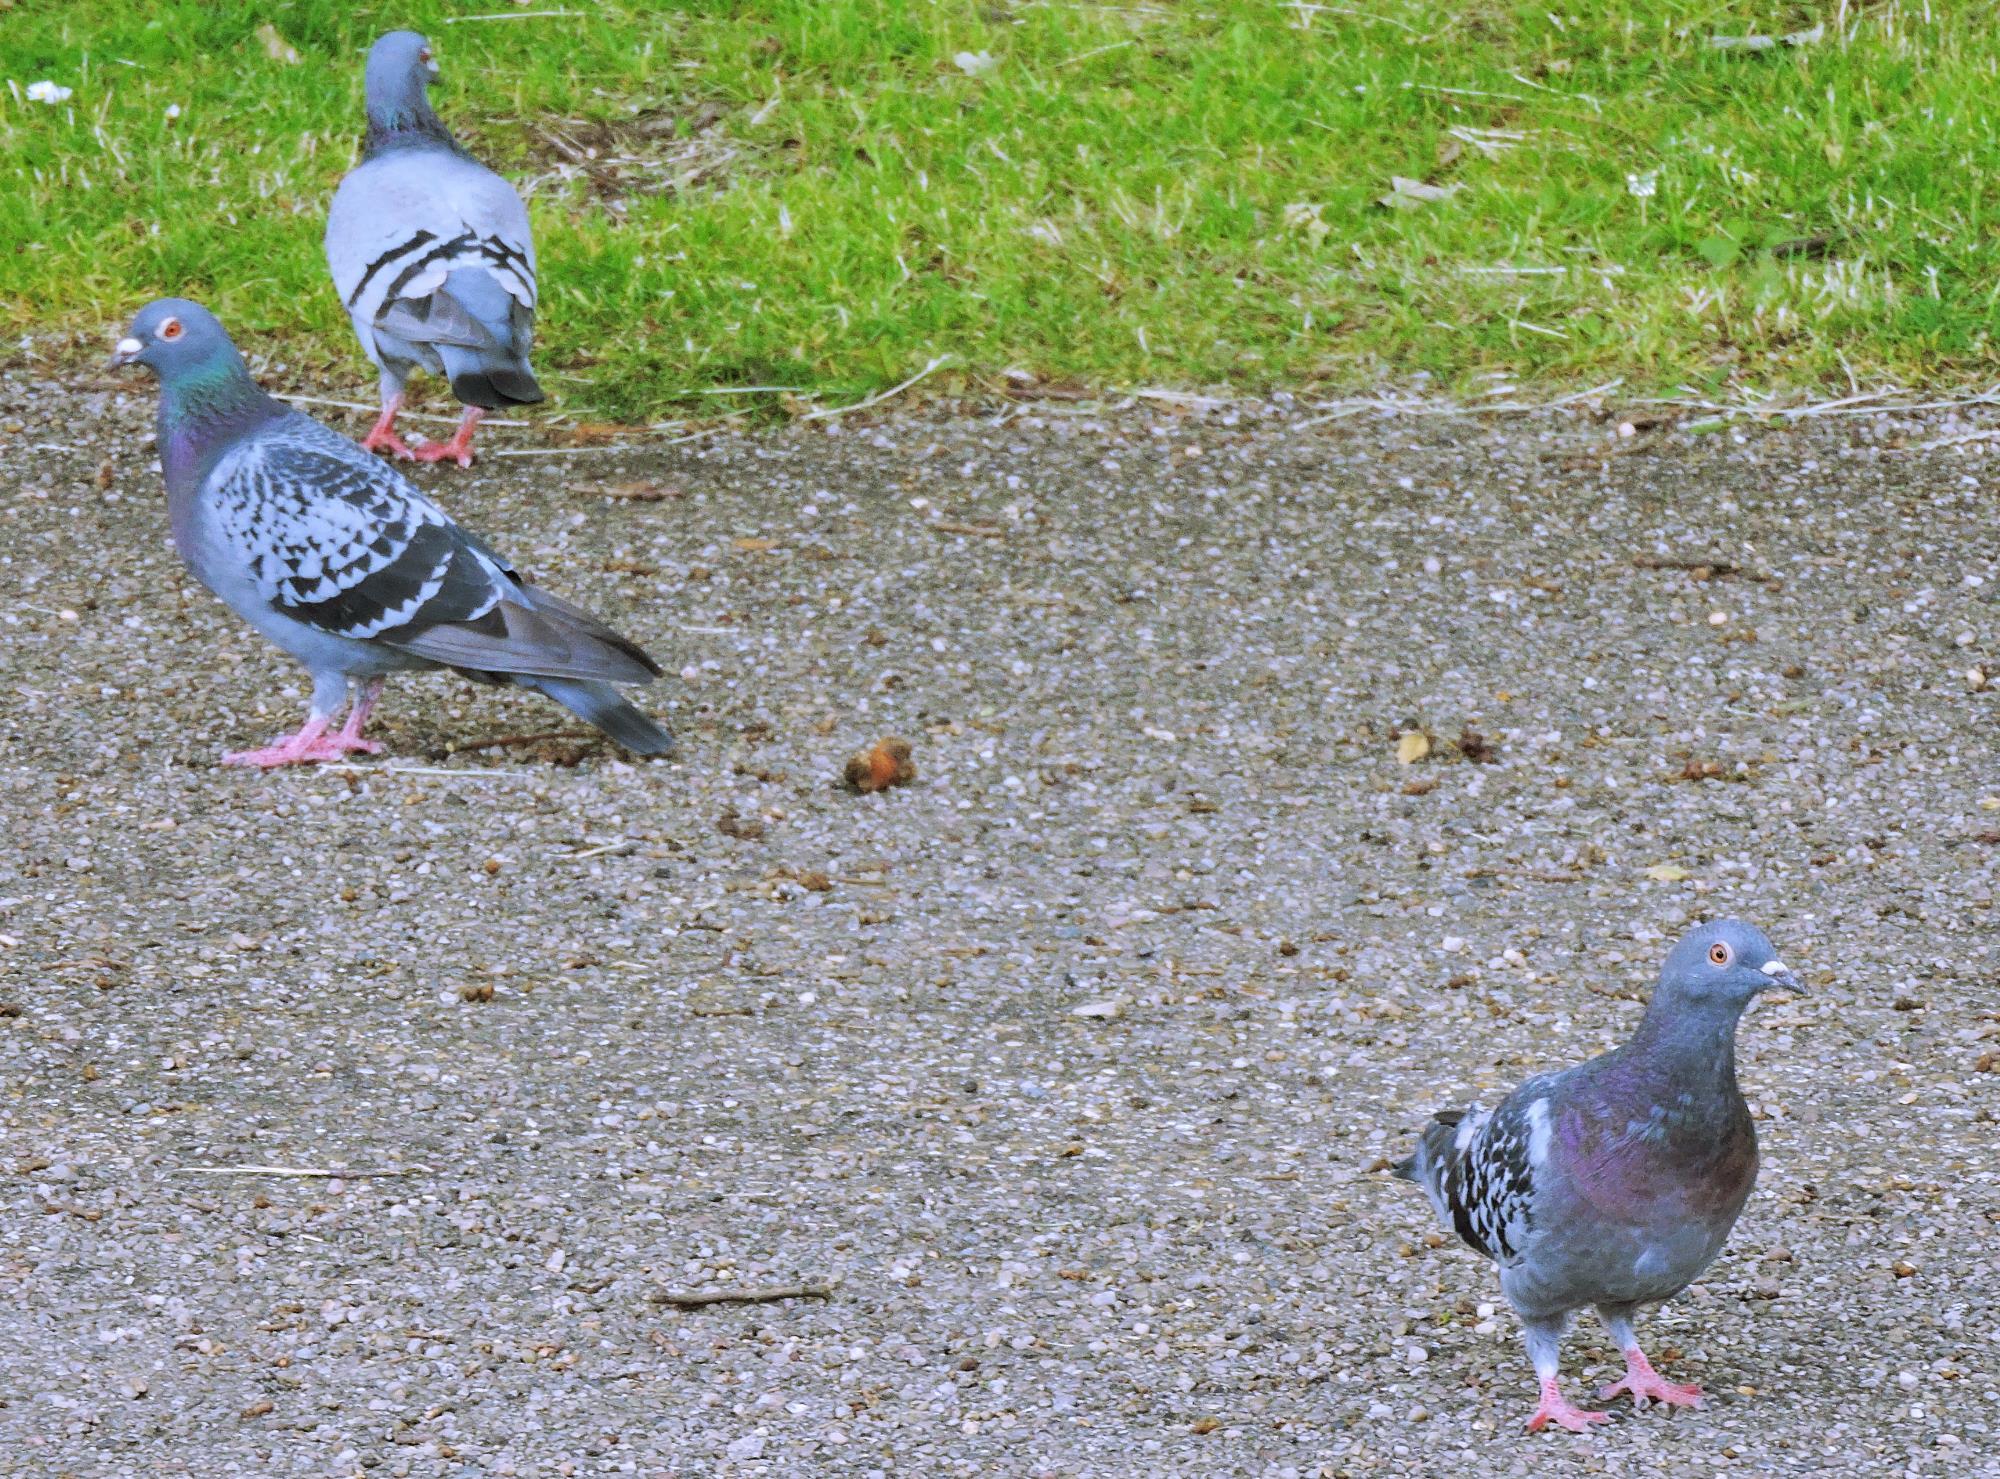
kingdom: Animalia
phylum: Chordata
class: Aves
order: Columbiformes
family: Columbidae
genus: Columba
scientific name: Columba livia
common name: Rock pigeon
